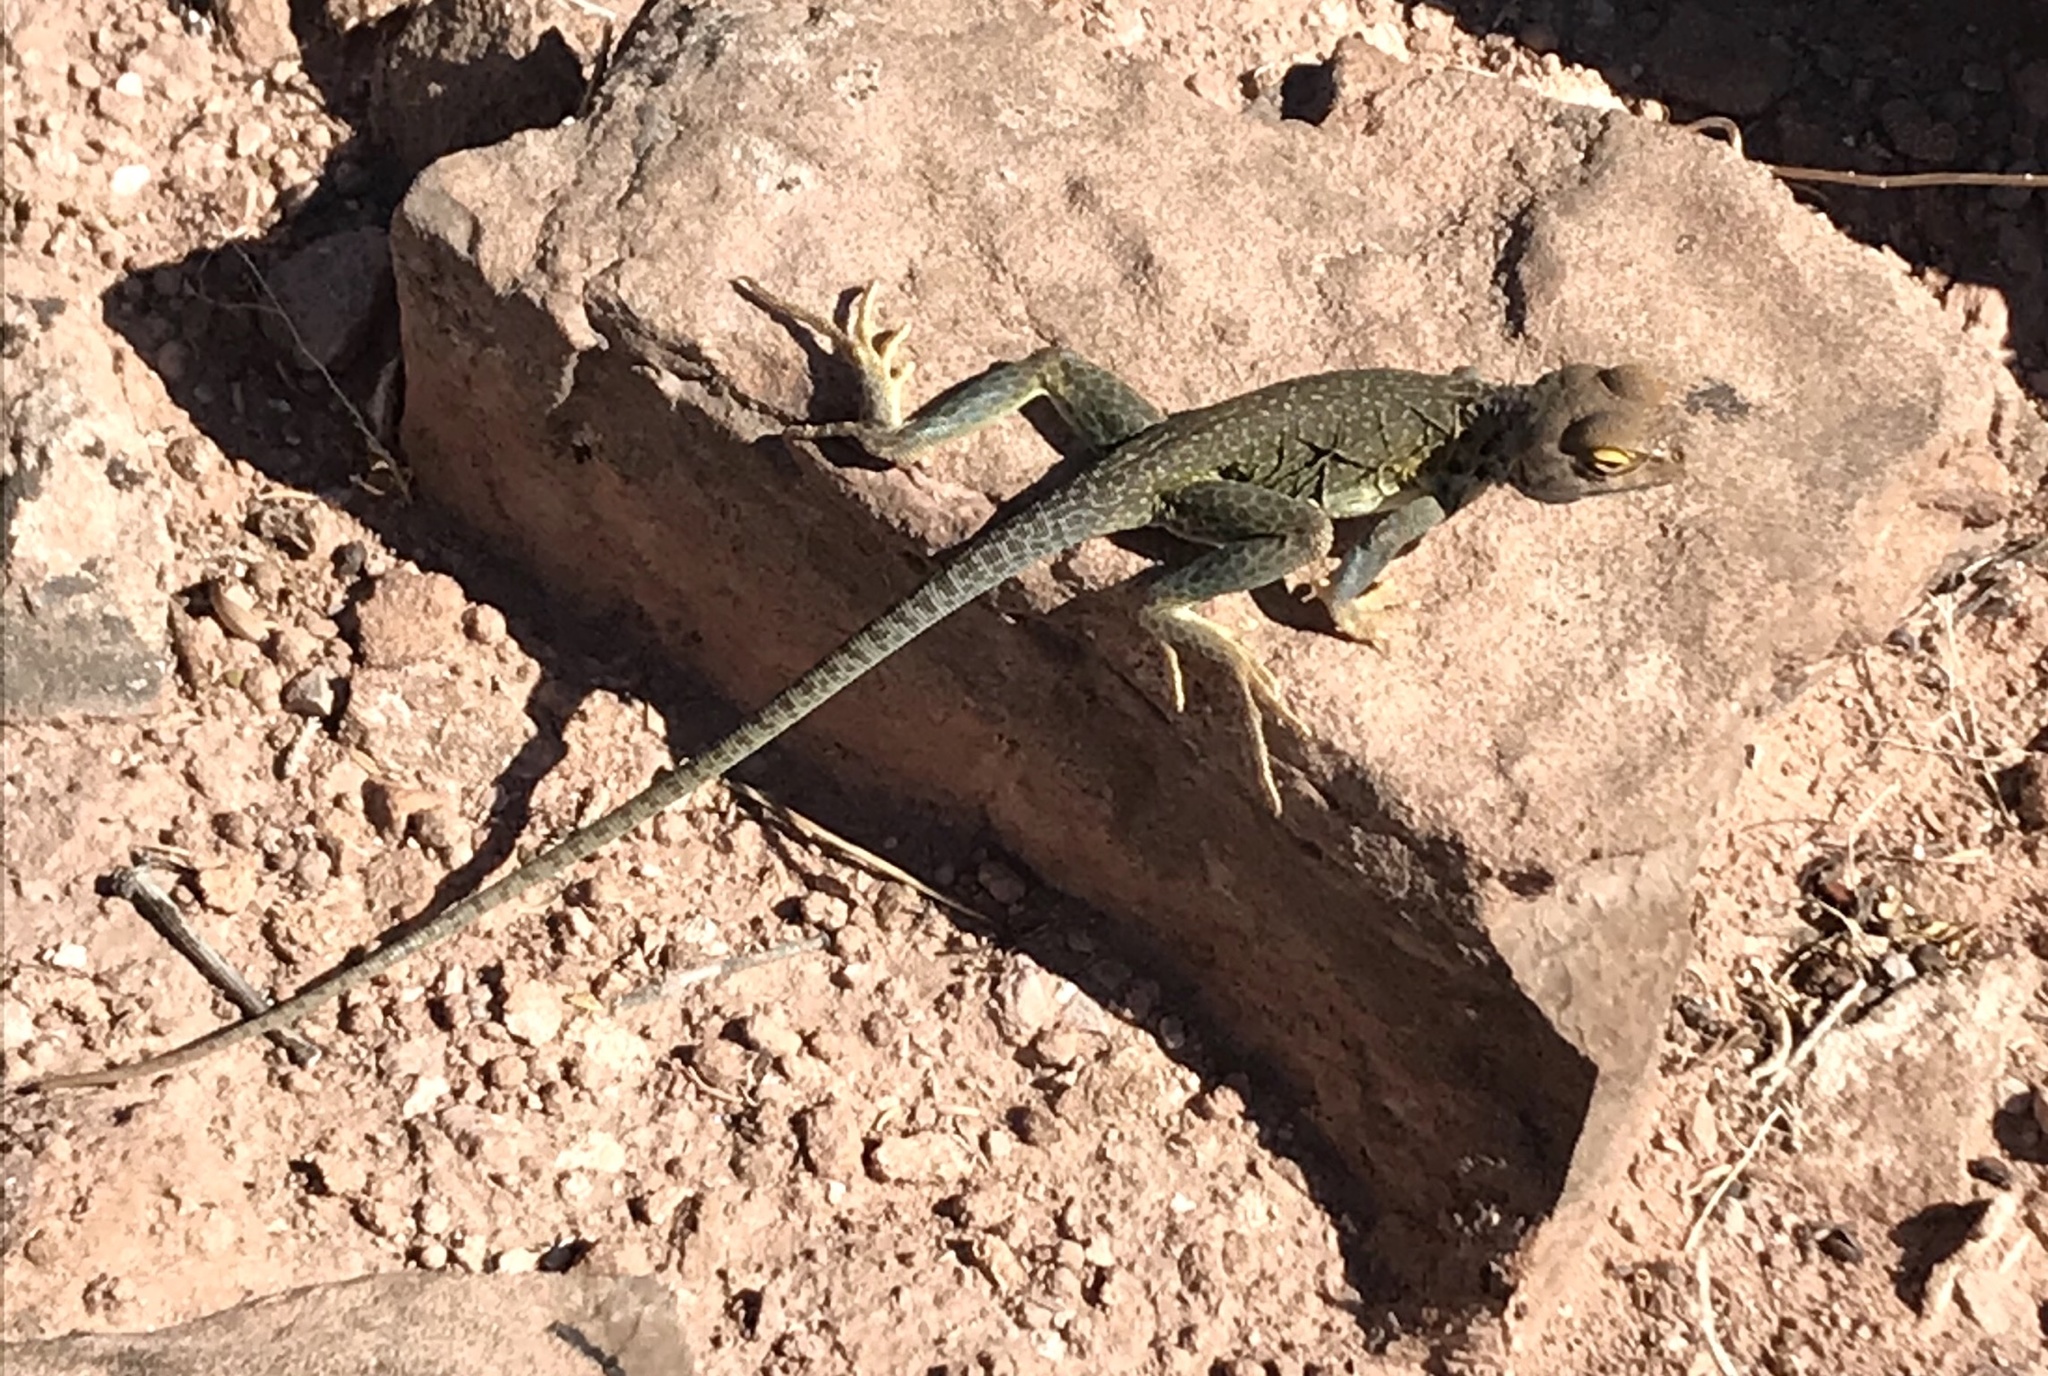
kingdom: Animalia
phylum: Chordata
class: Squamata
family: Crotaphytidae
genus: Crotaphytus
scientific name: Crotaphytus collaris
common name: Collared lizard
